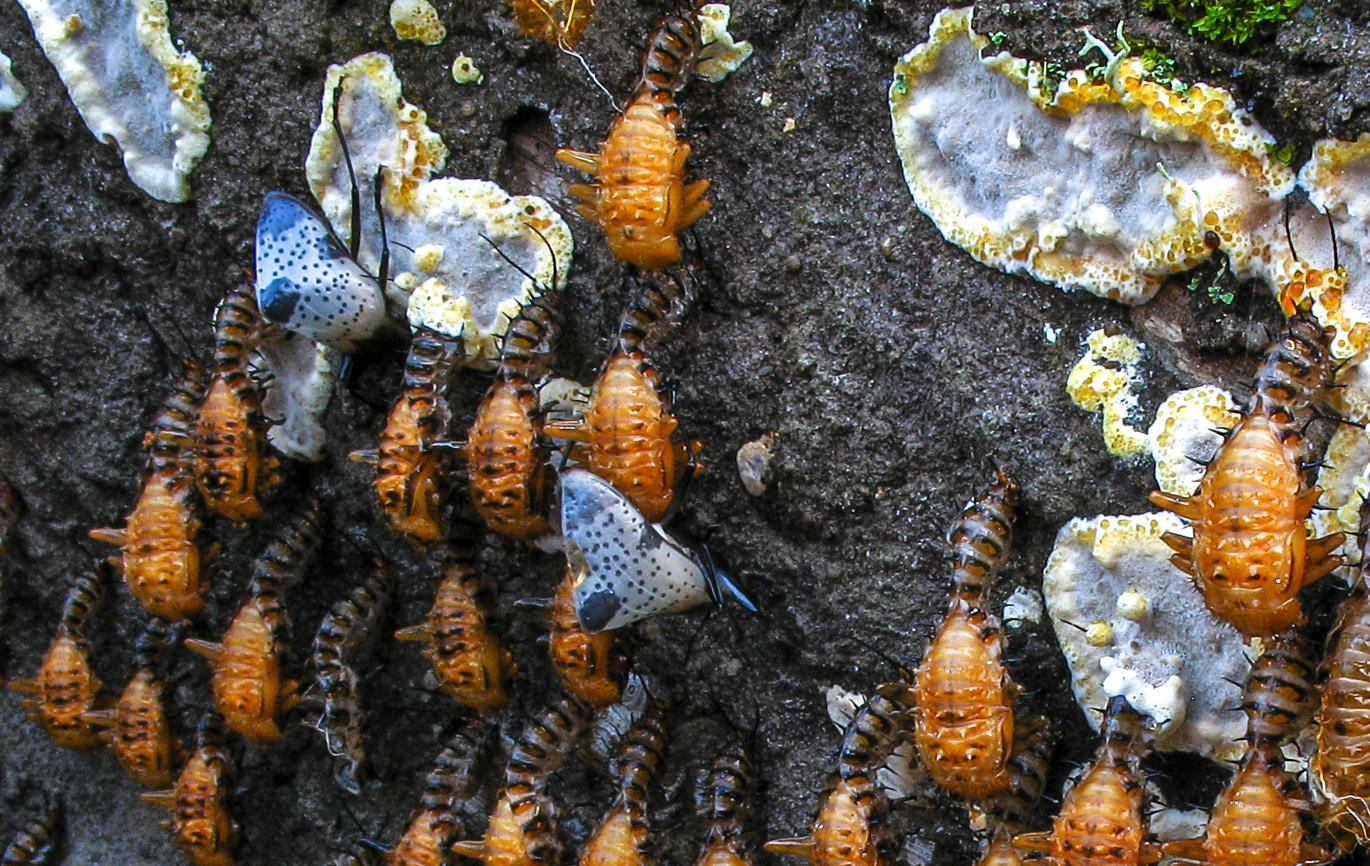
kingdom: Animalia
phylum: Arthropoda
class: Insecta
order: Coleoptera
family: Erotylidae
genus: Gibbifer
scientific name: Gibbifer
